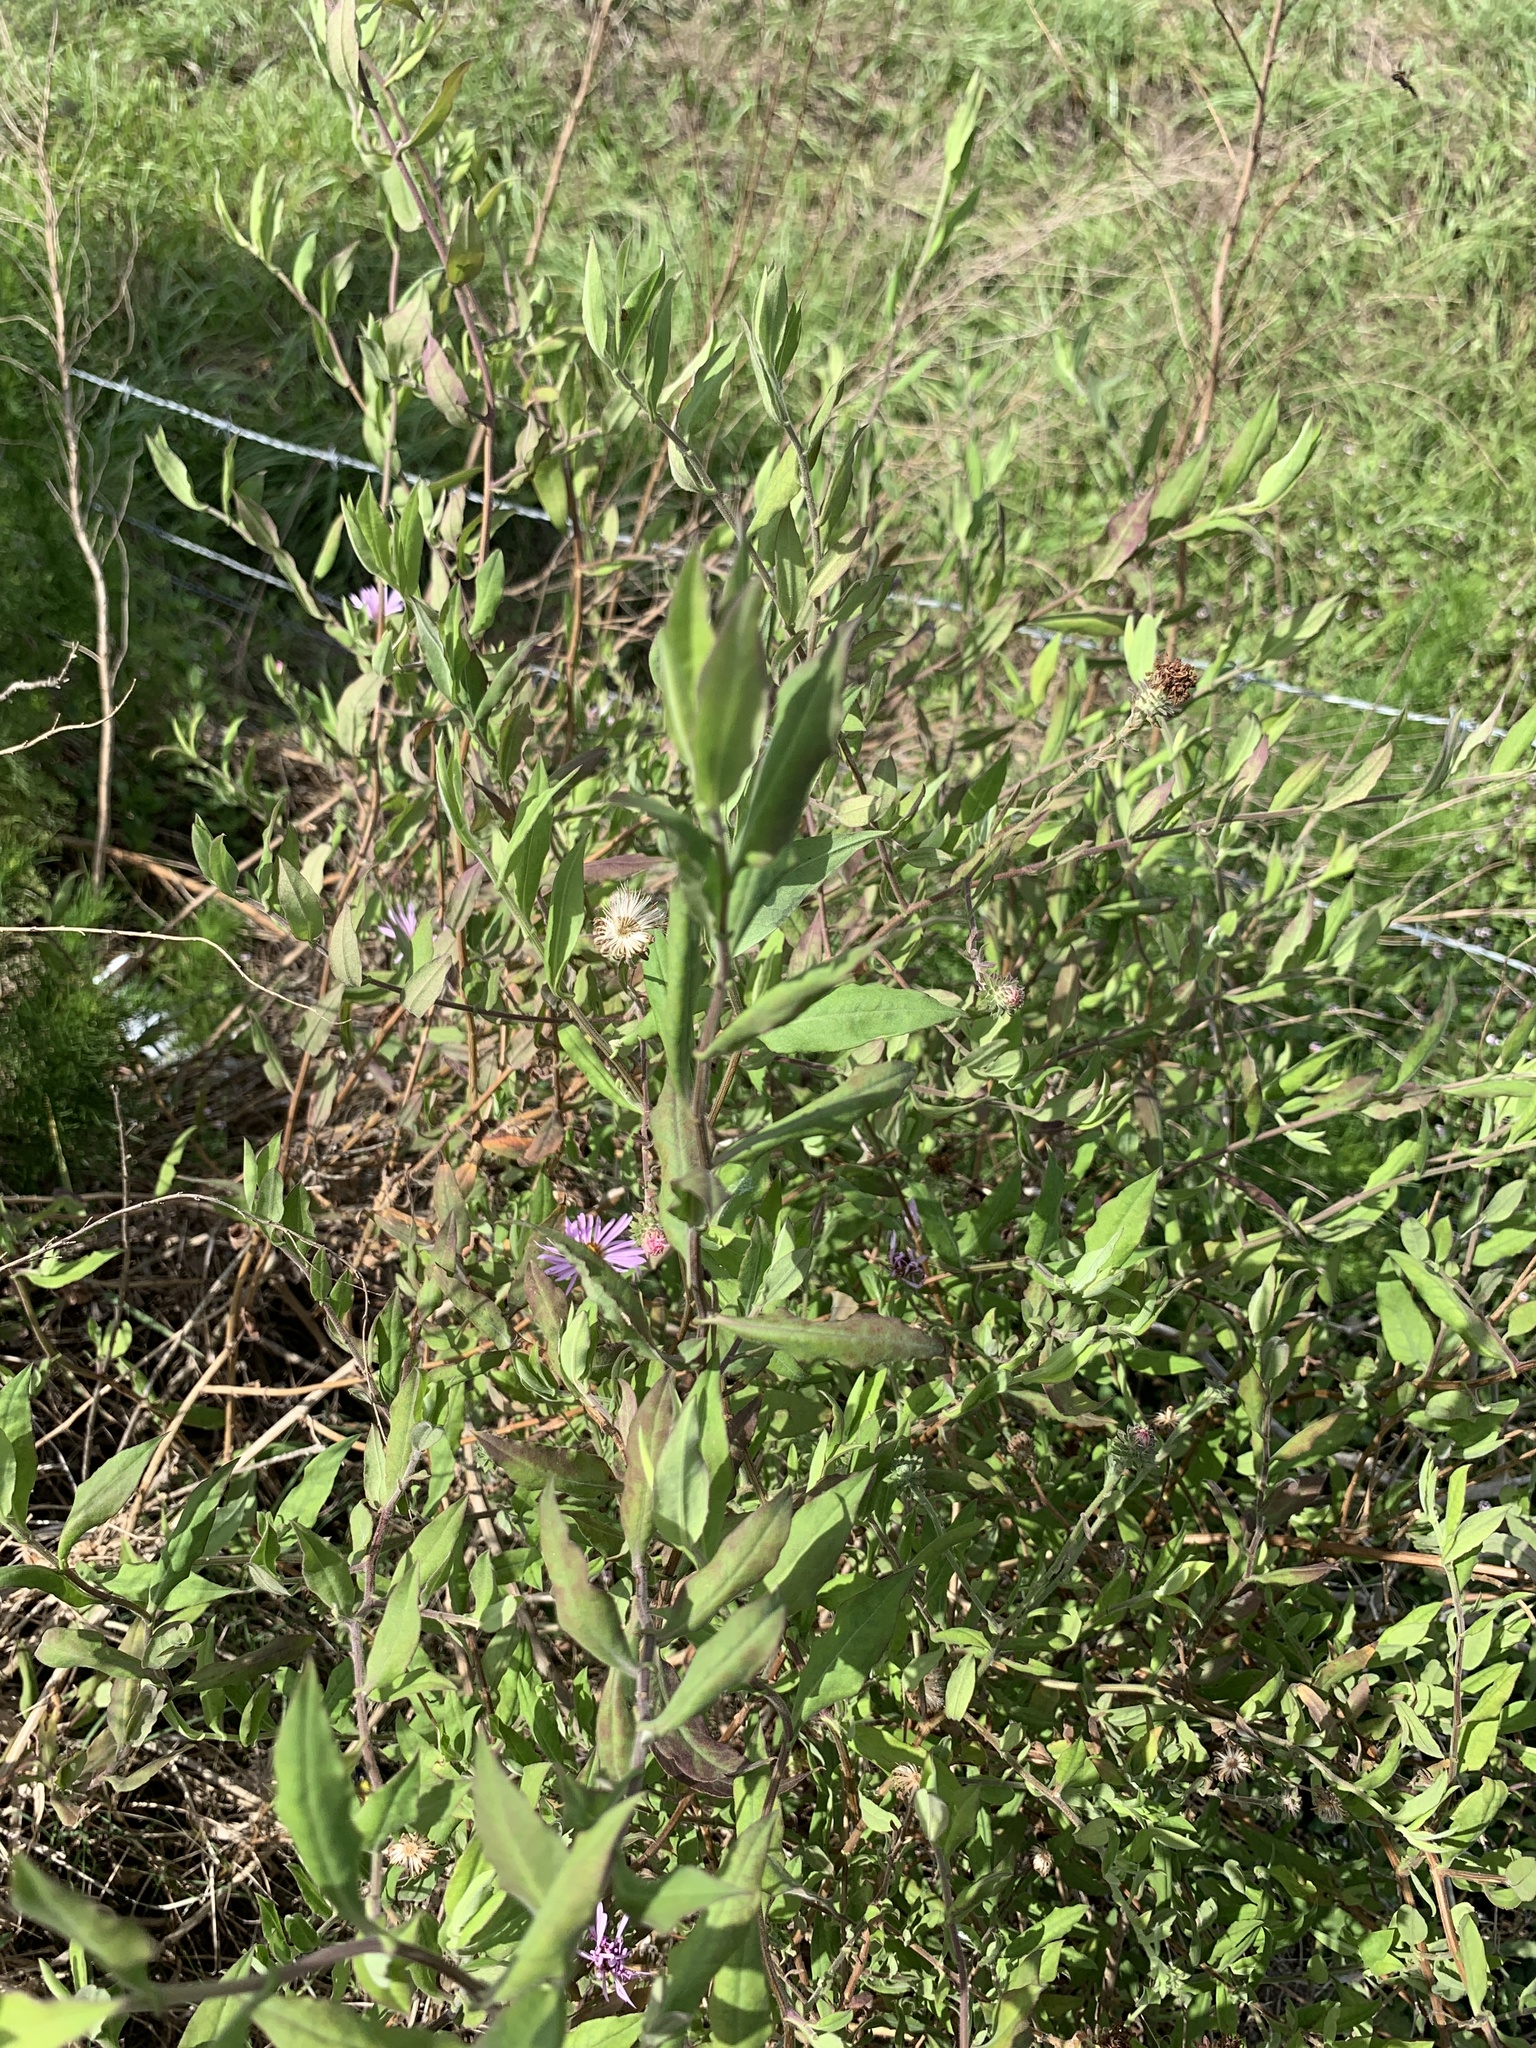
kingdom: Plantae
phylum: Tracheophyta
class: Magnoliopsida
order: Asterales
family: Asteraceae
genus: Ampelaster
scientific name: Ampelaster carolinianus
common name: Climbing aster
